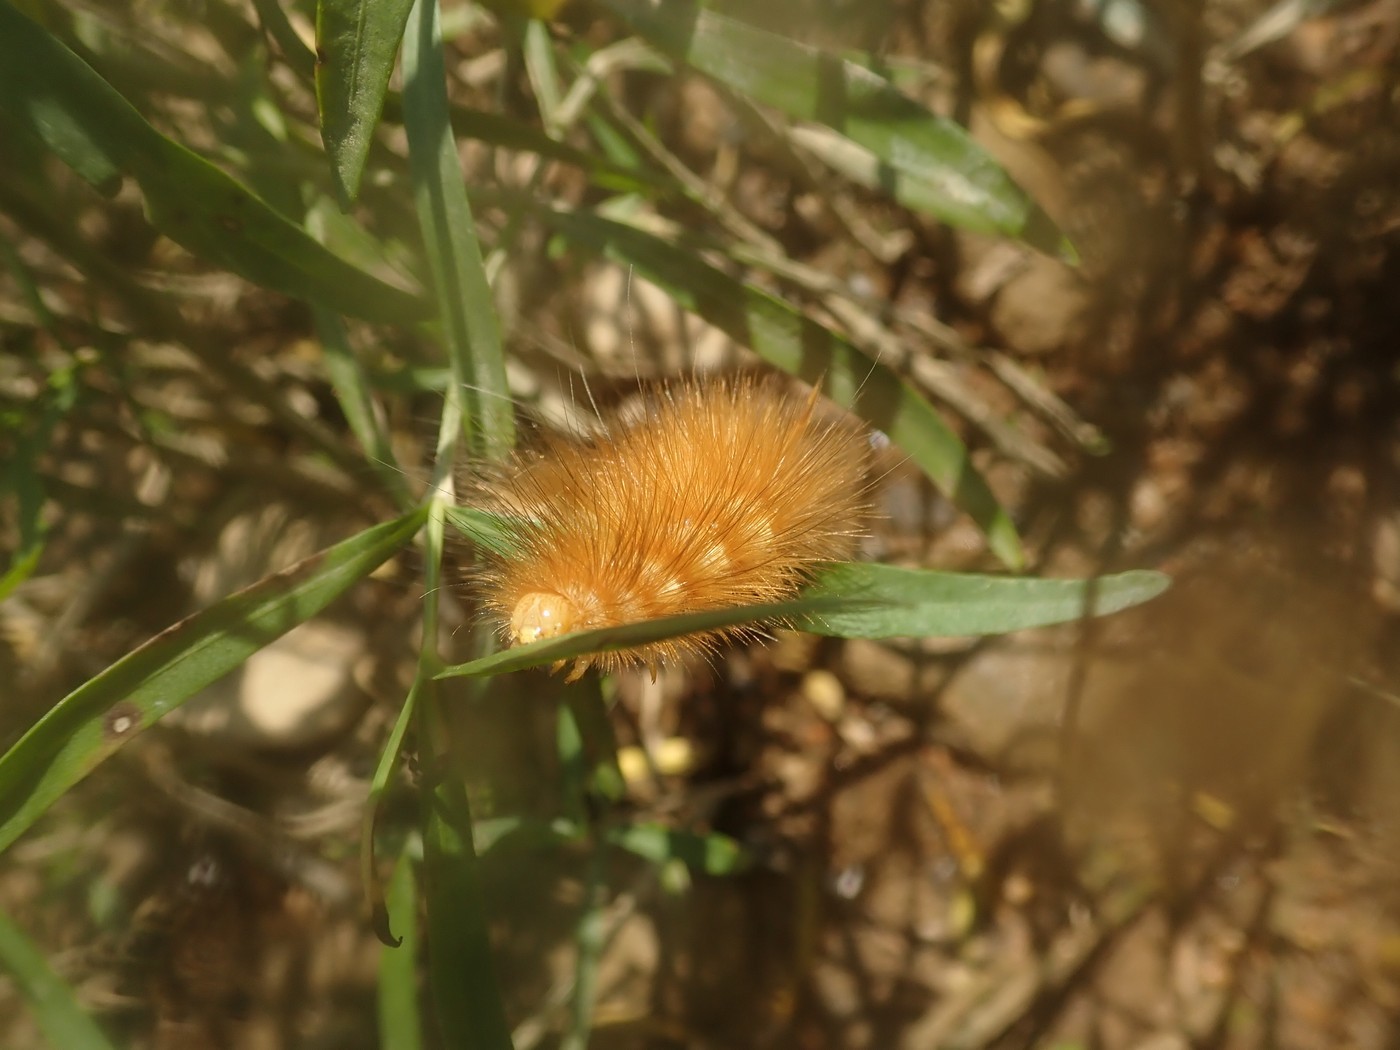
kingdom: Animalia
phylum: Arthropoda
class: Insecta
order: Lepidoptera
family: Erebidae
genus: Spilosoma
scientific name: Spilosoma virginica
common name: Virginia tiger moth
